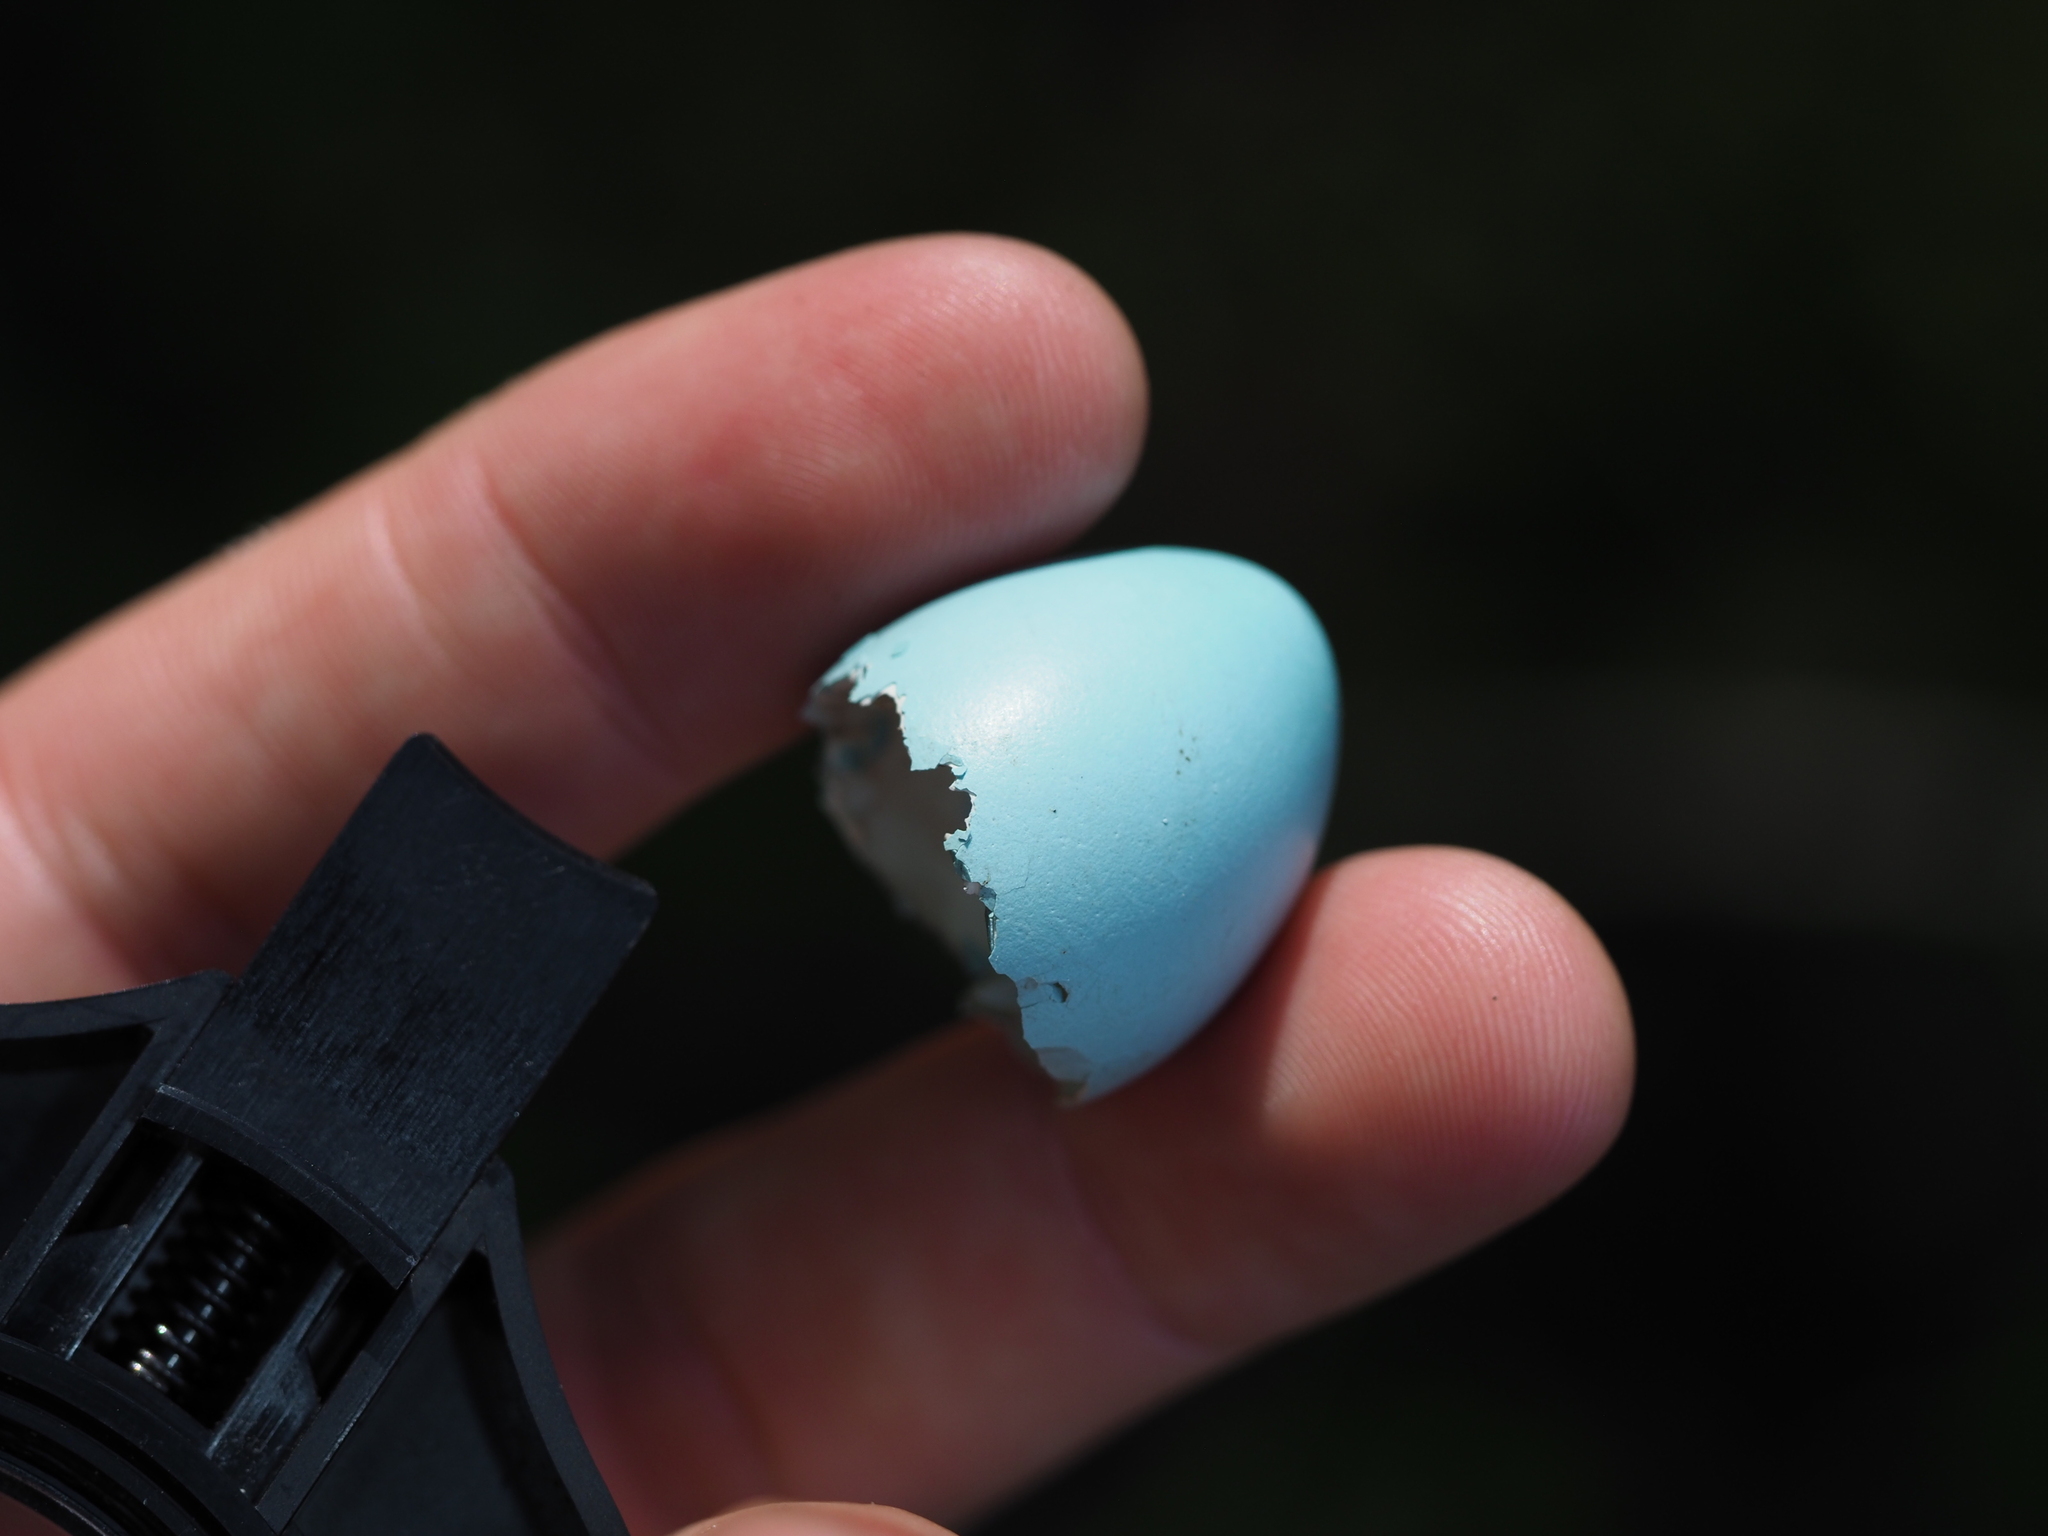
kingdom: Animalia
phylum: Chordata
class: Aves
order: Passeriformes
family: Turdidae
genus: Turdus
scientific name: Turdus migratorius
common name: American robin
